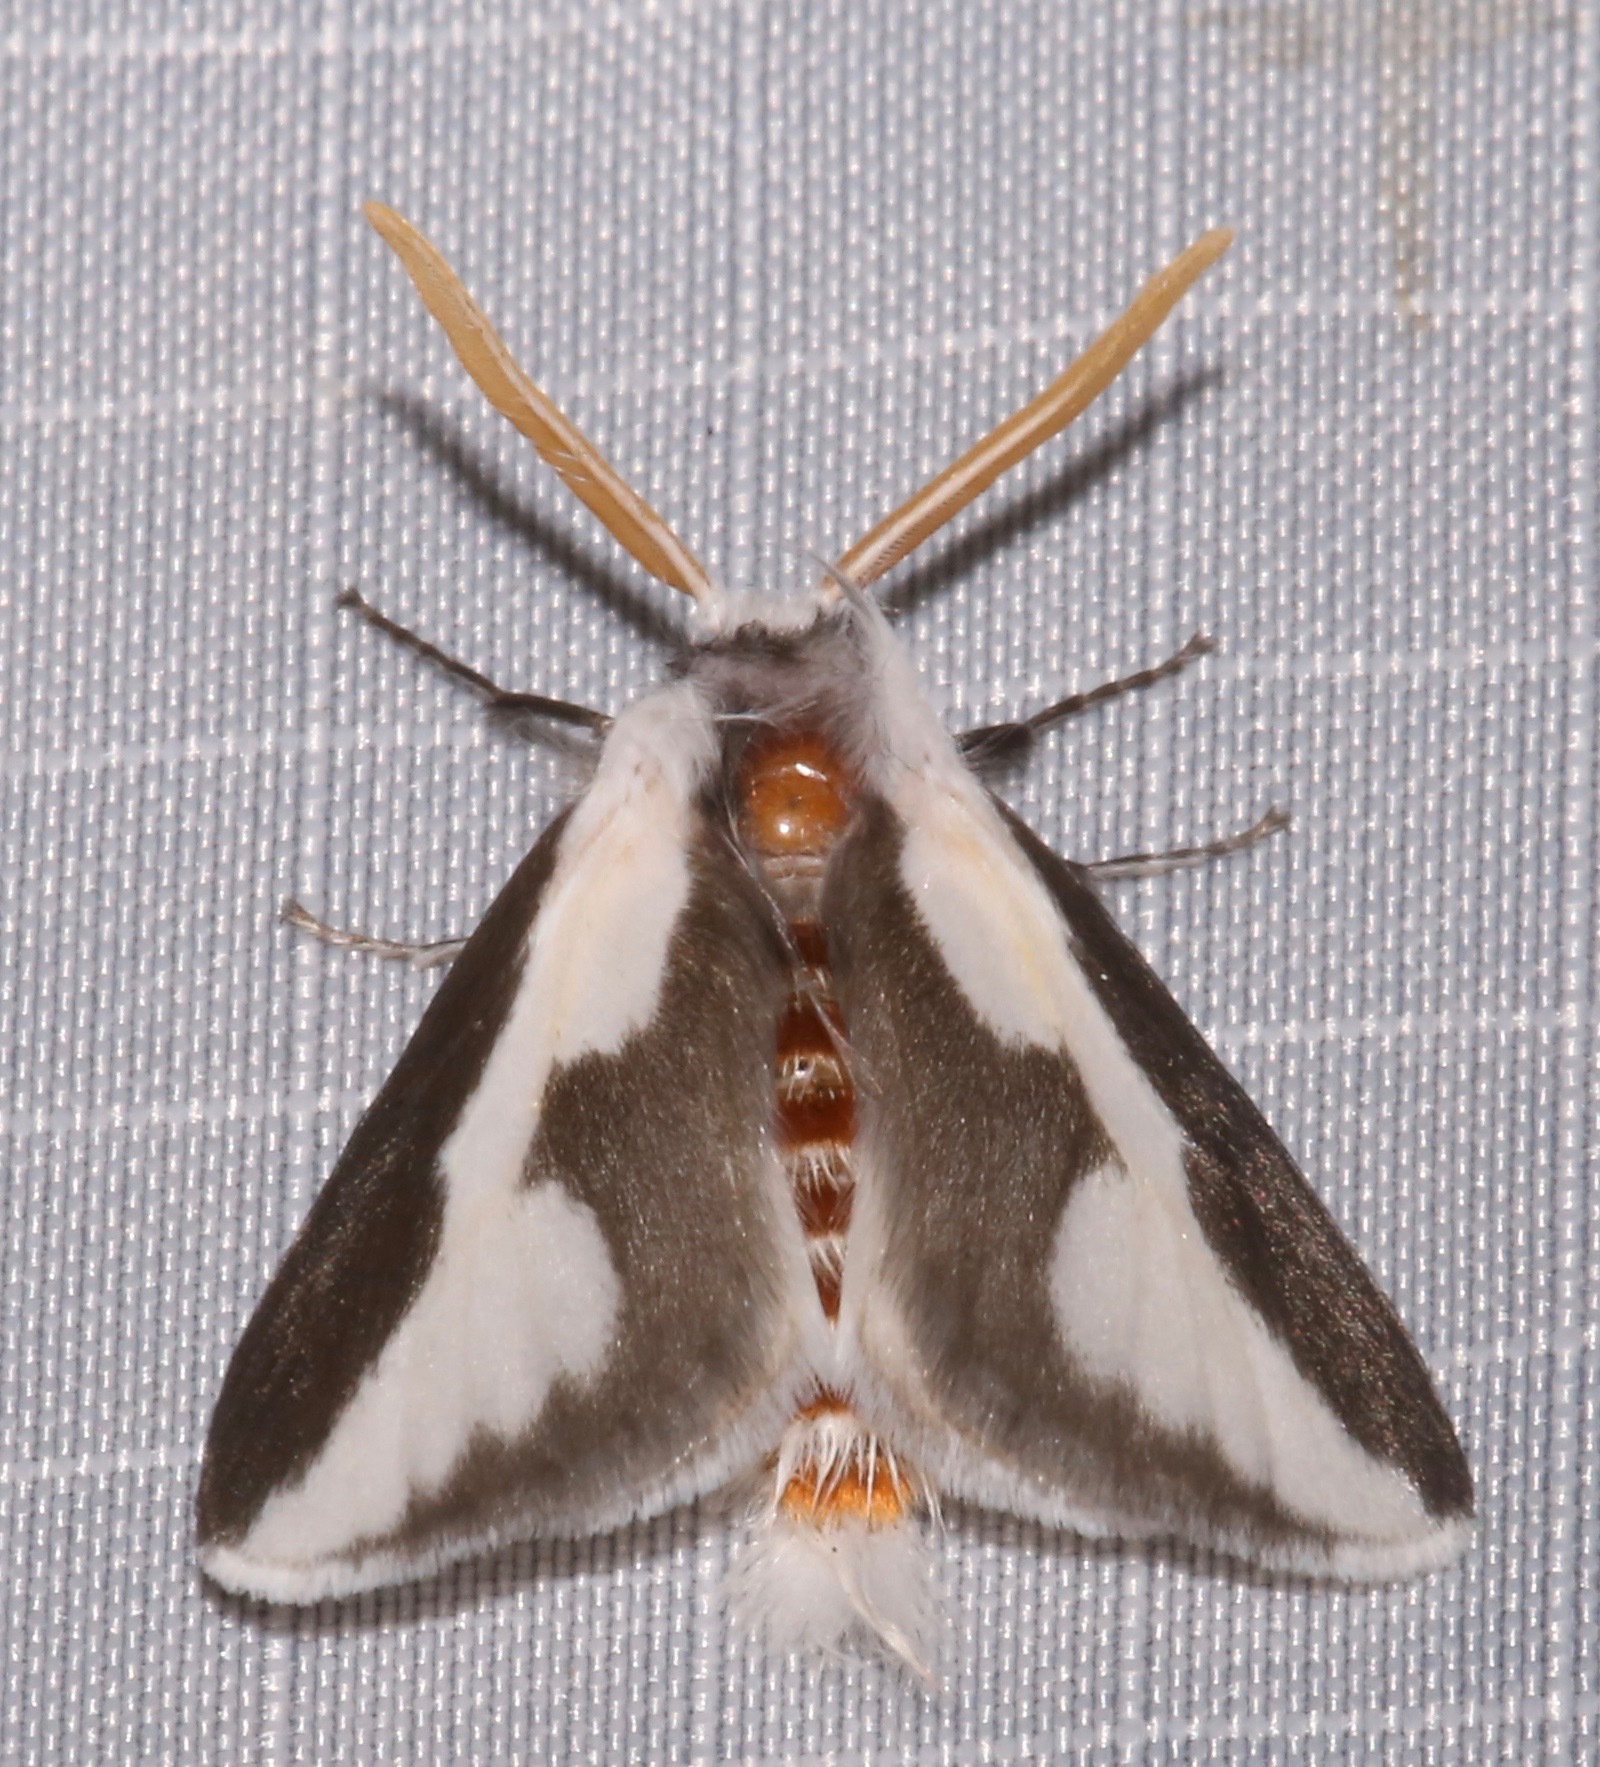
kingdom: Animalia
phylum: Arthropoda
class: Insecta
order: Lepidoptera
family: Megalopygidae
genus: Norape
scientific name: Norape tener
